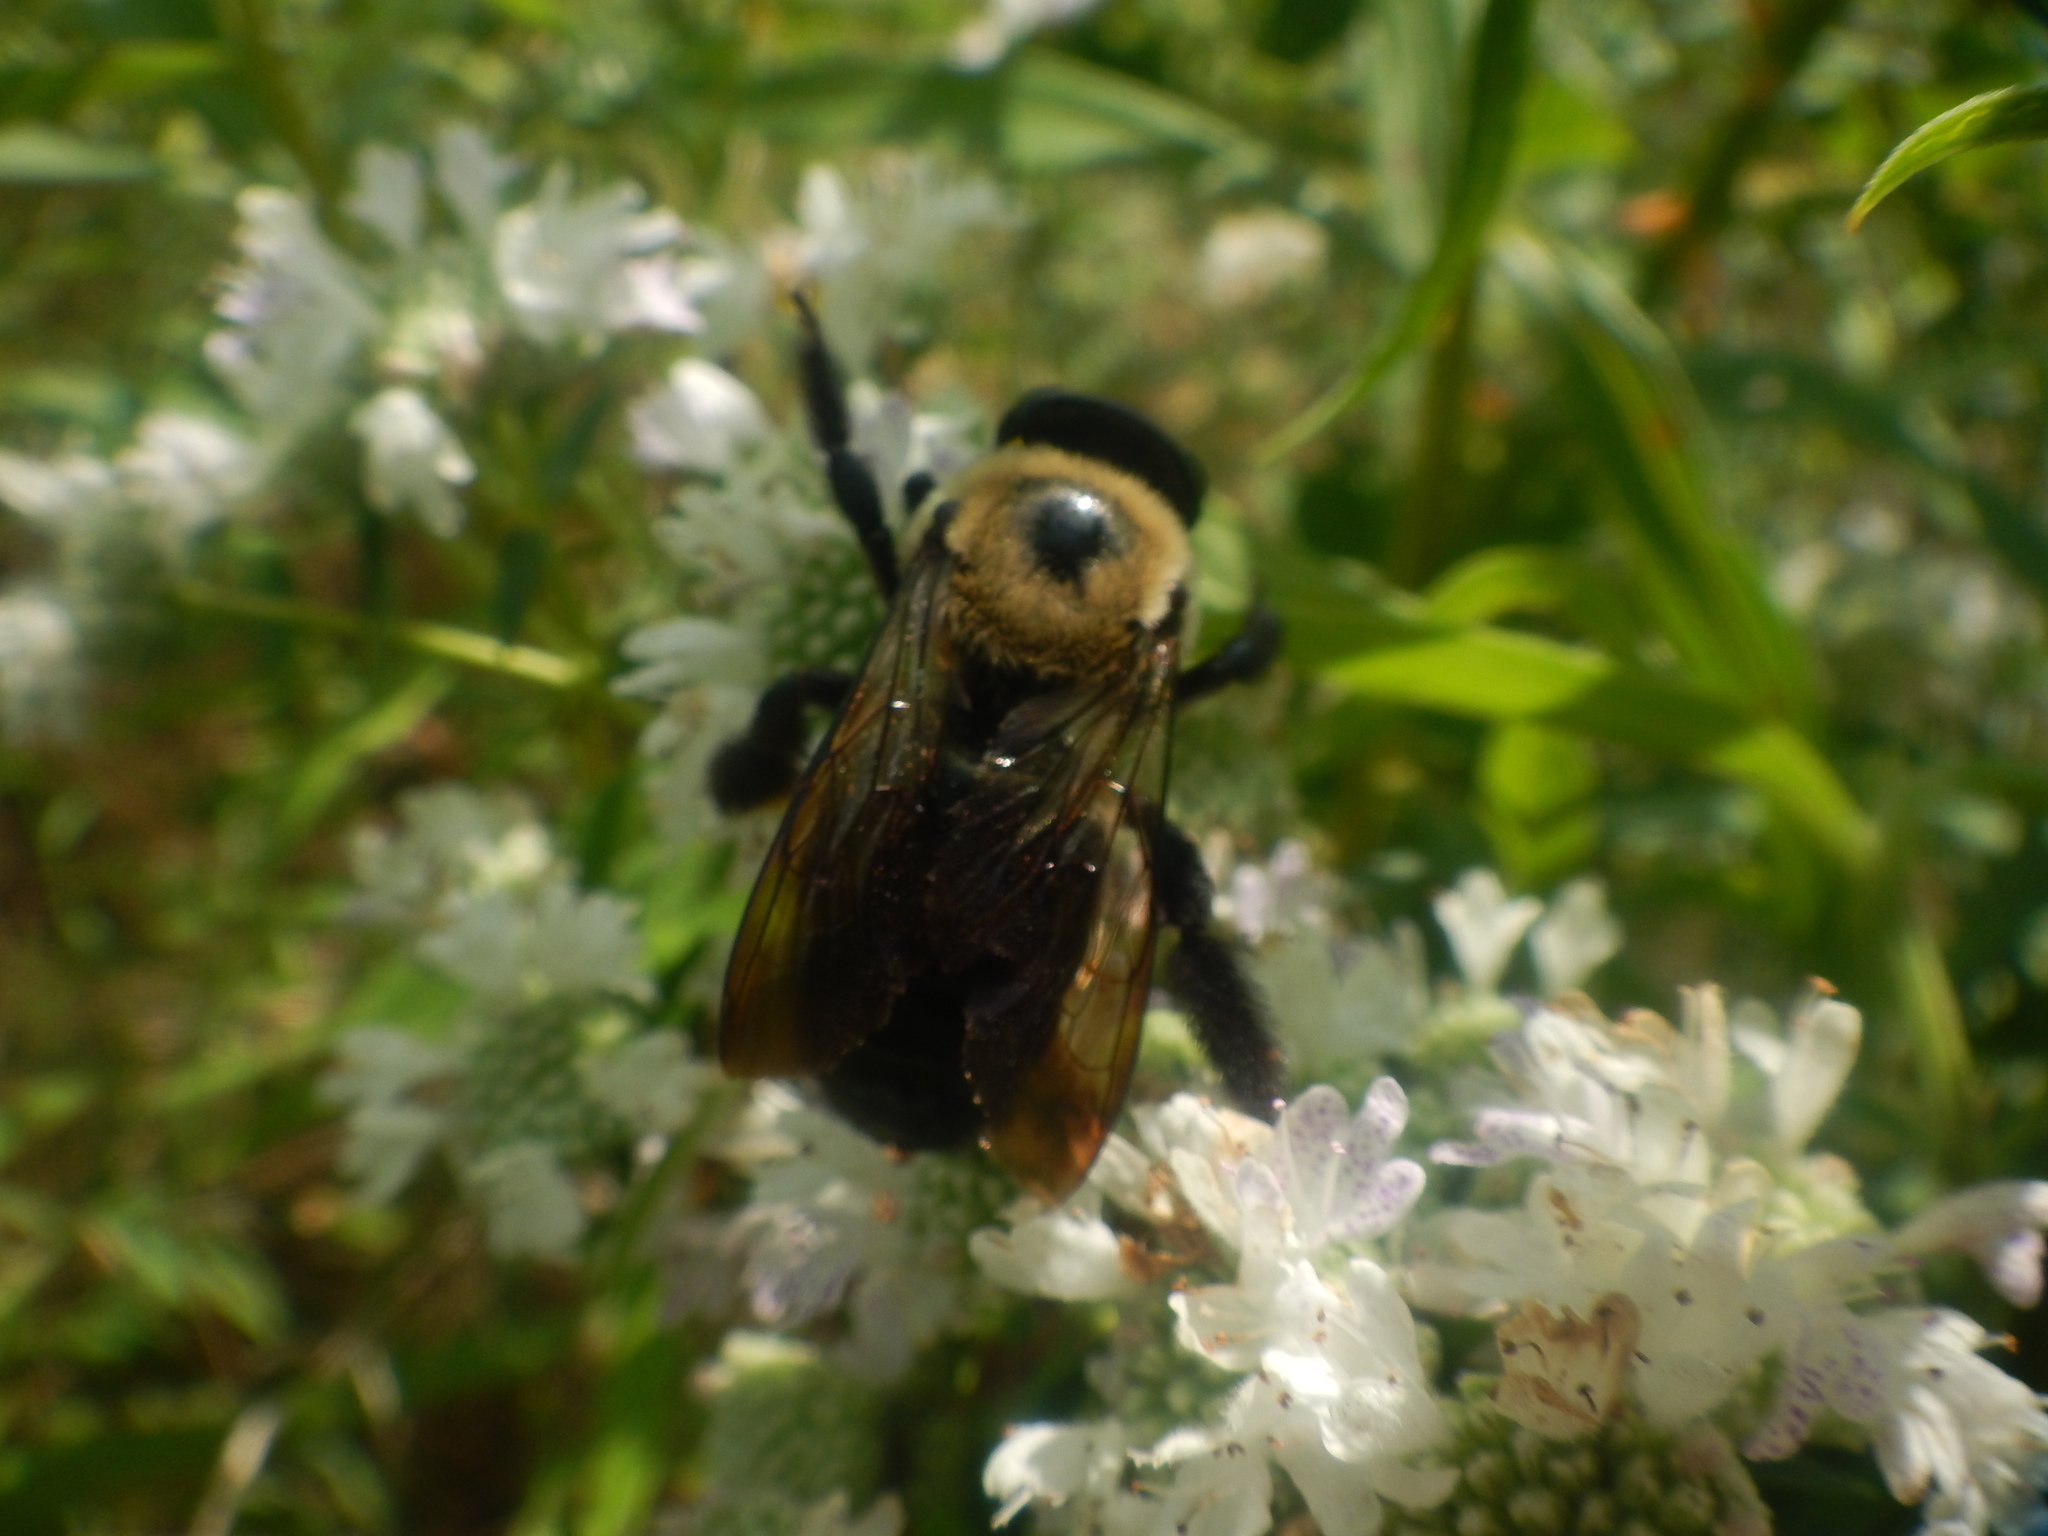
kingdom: Animalia
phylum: Arthropoda
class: Insecta
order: Hymenoptera
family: Apidae
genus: Xylocopa
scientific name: Xylocopa virginica
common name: Carpenter bee
